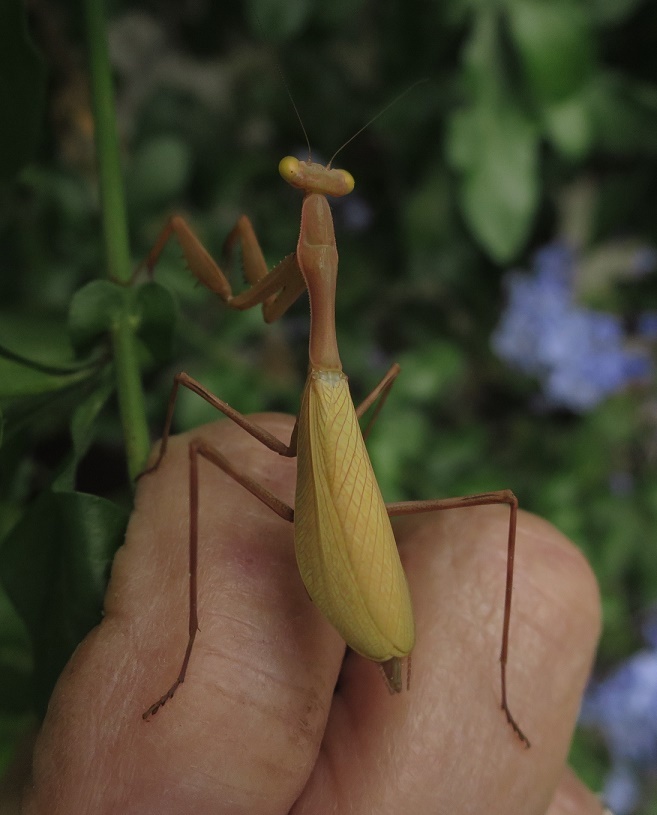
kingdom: Animalia
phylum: Arthropoda
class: Insecta
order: Mantodea
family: Miomantidae
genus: Miomantis
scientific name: Miomantis caffra
